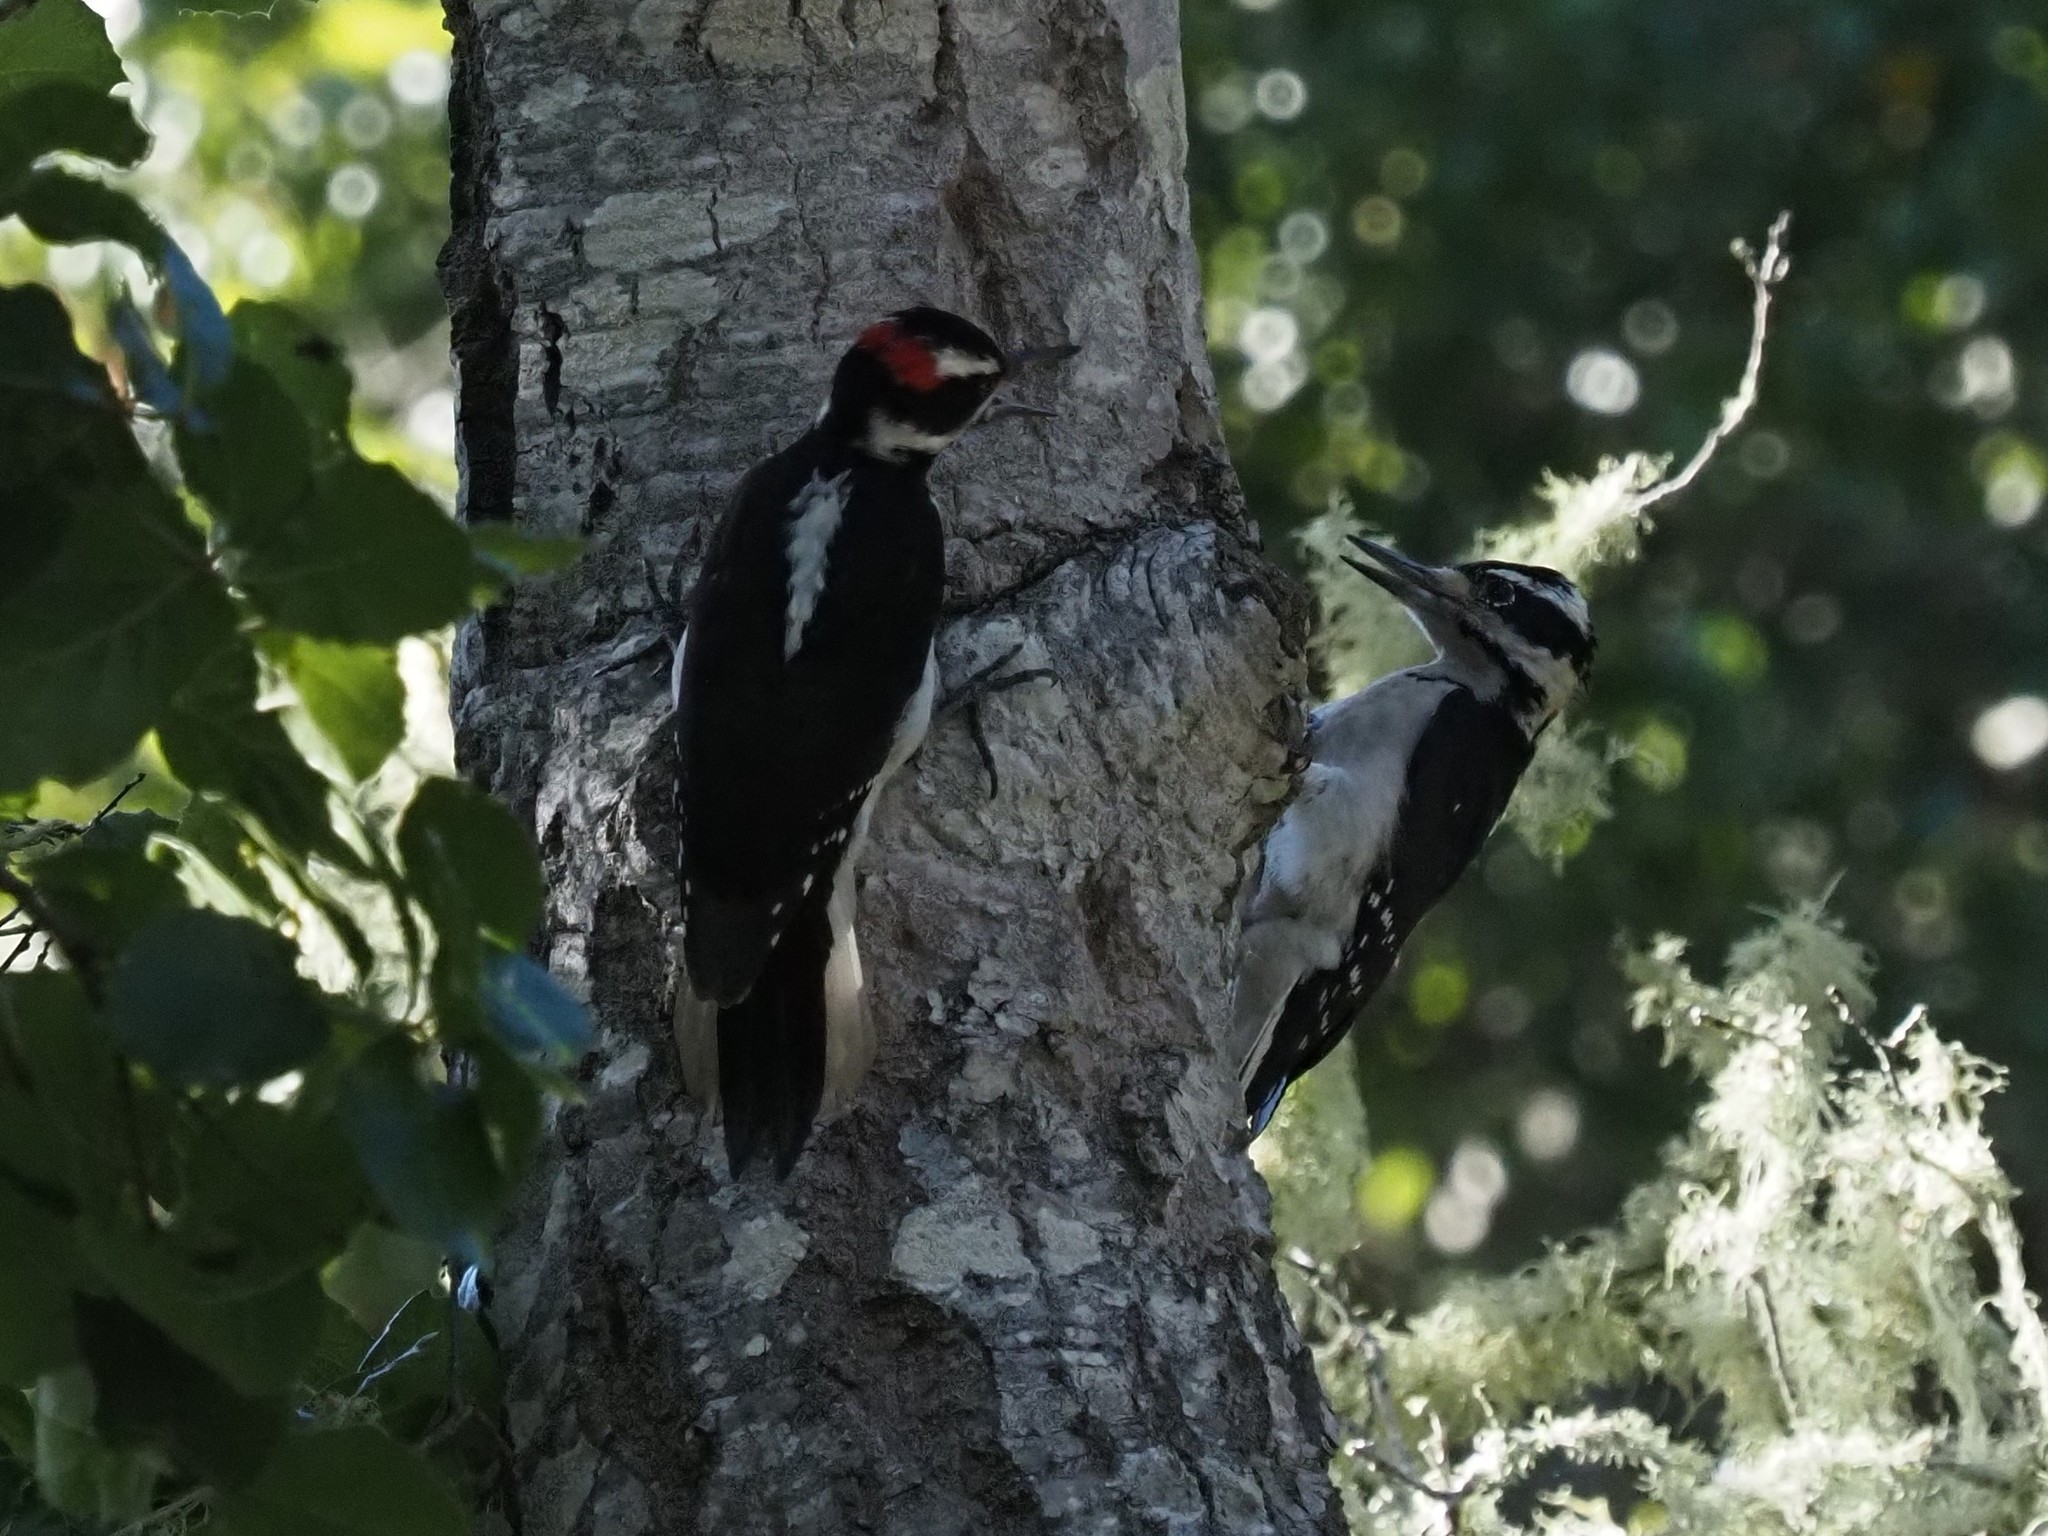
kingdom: Animalia
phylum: Chordata
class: Aves
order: Piciformes
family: Picidae
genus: Leuconotopicus
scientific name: Leuconotopicus villosus
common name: Hairy woodpecker
